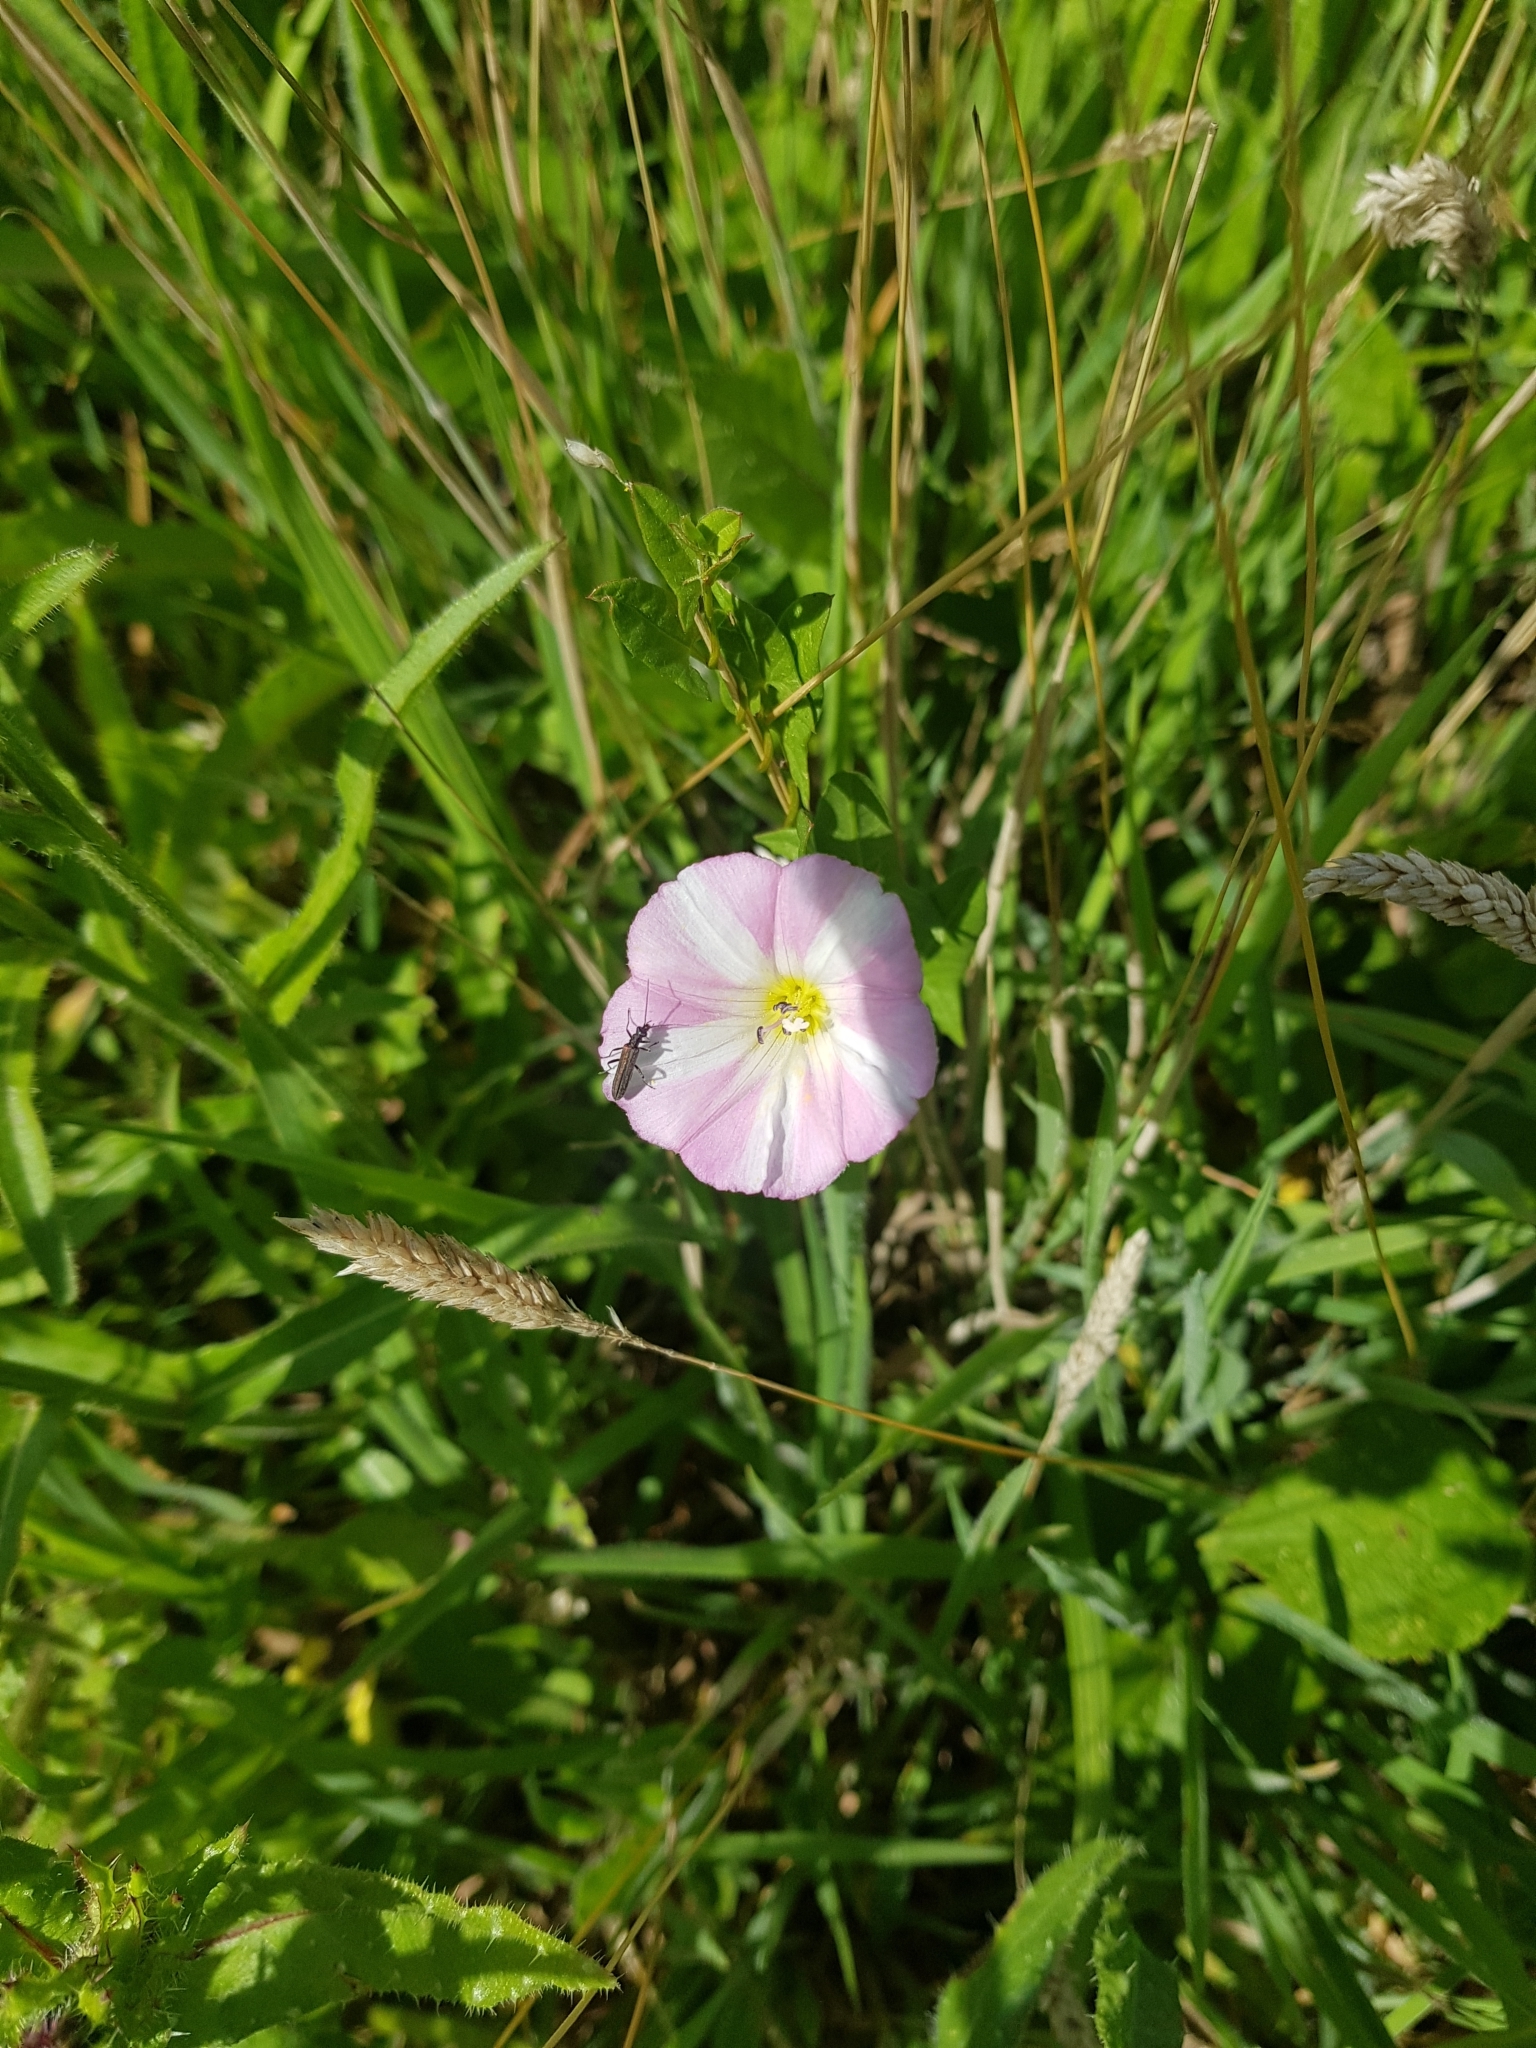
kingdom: Plantae
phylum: Tracheophyta
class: Magnoliopsida
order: Solanales
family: Convolvulaceae
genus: Convolvulus
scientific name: Convolvulus arvensis
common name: Field bindweed
